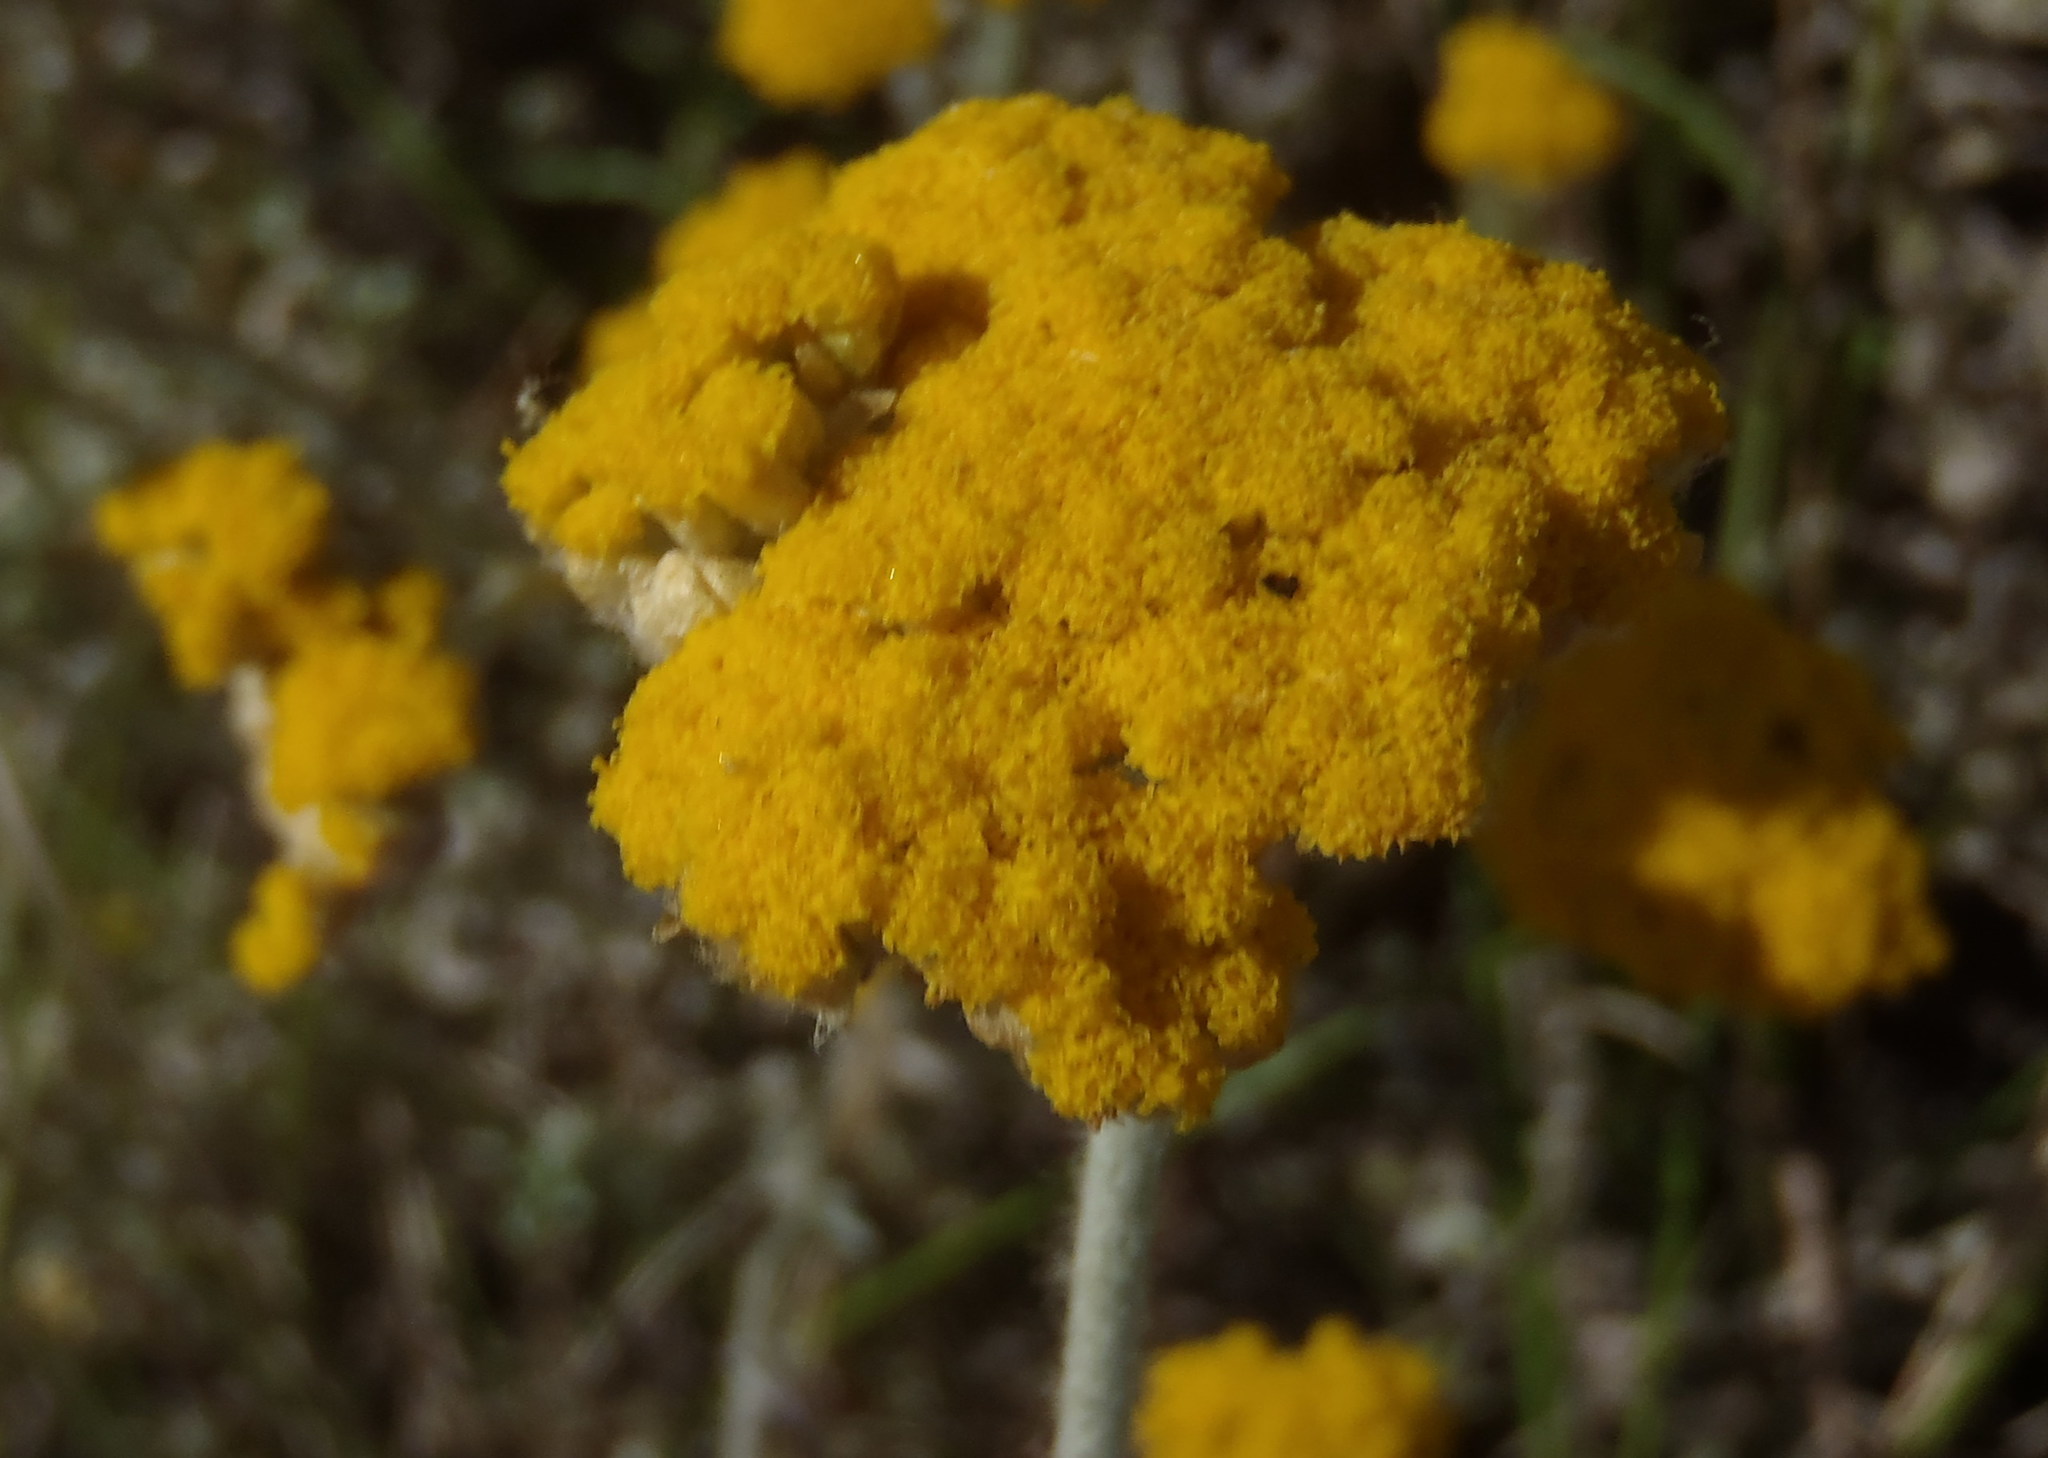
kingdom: Plantae
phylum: Tracheophyta
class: Magnoliopsida
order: Asterales
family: Asteraceae
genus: Helichrysum
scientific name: Helichrysum dasyanthum
